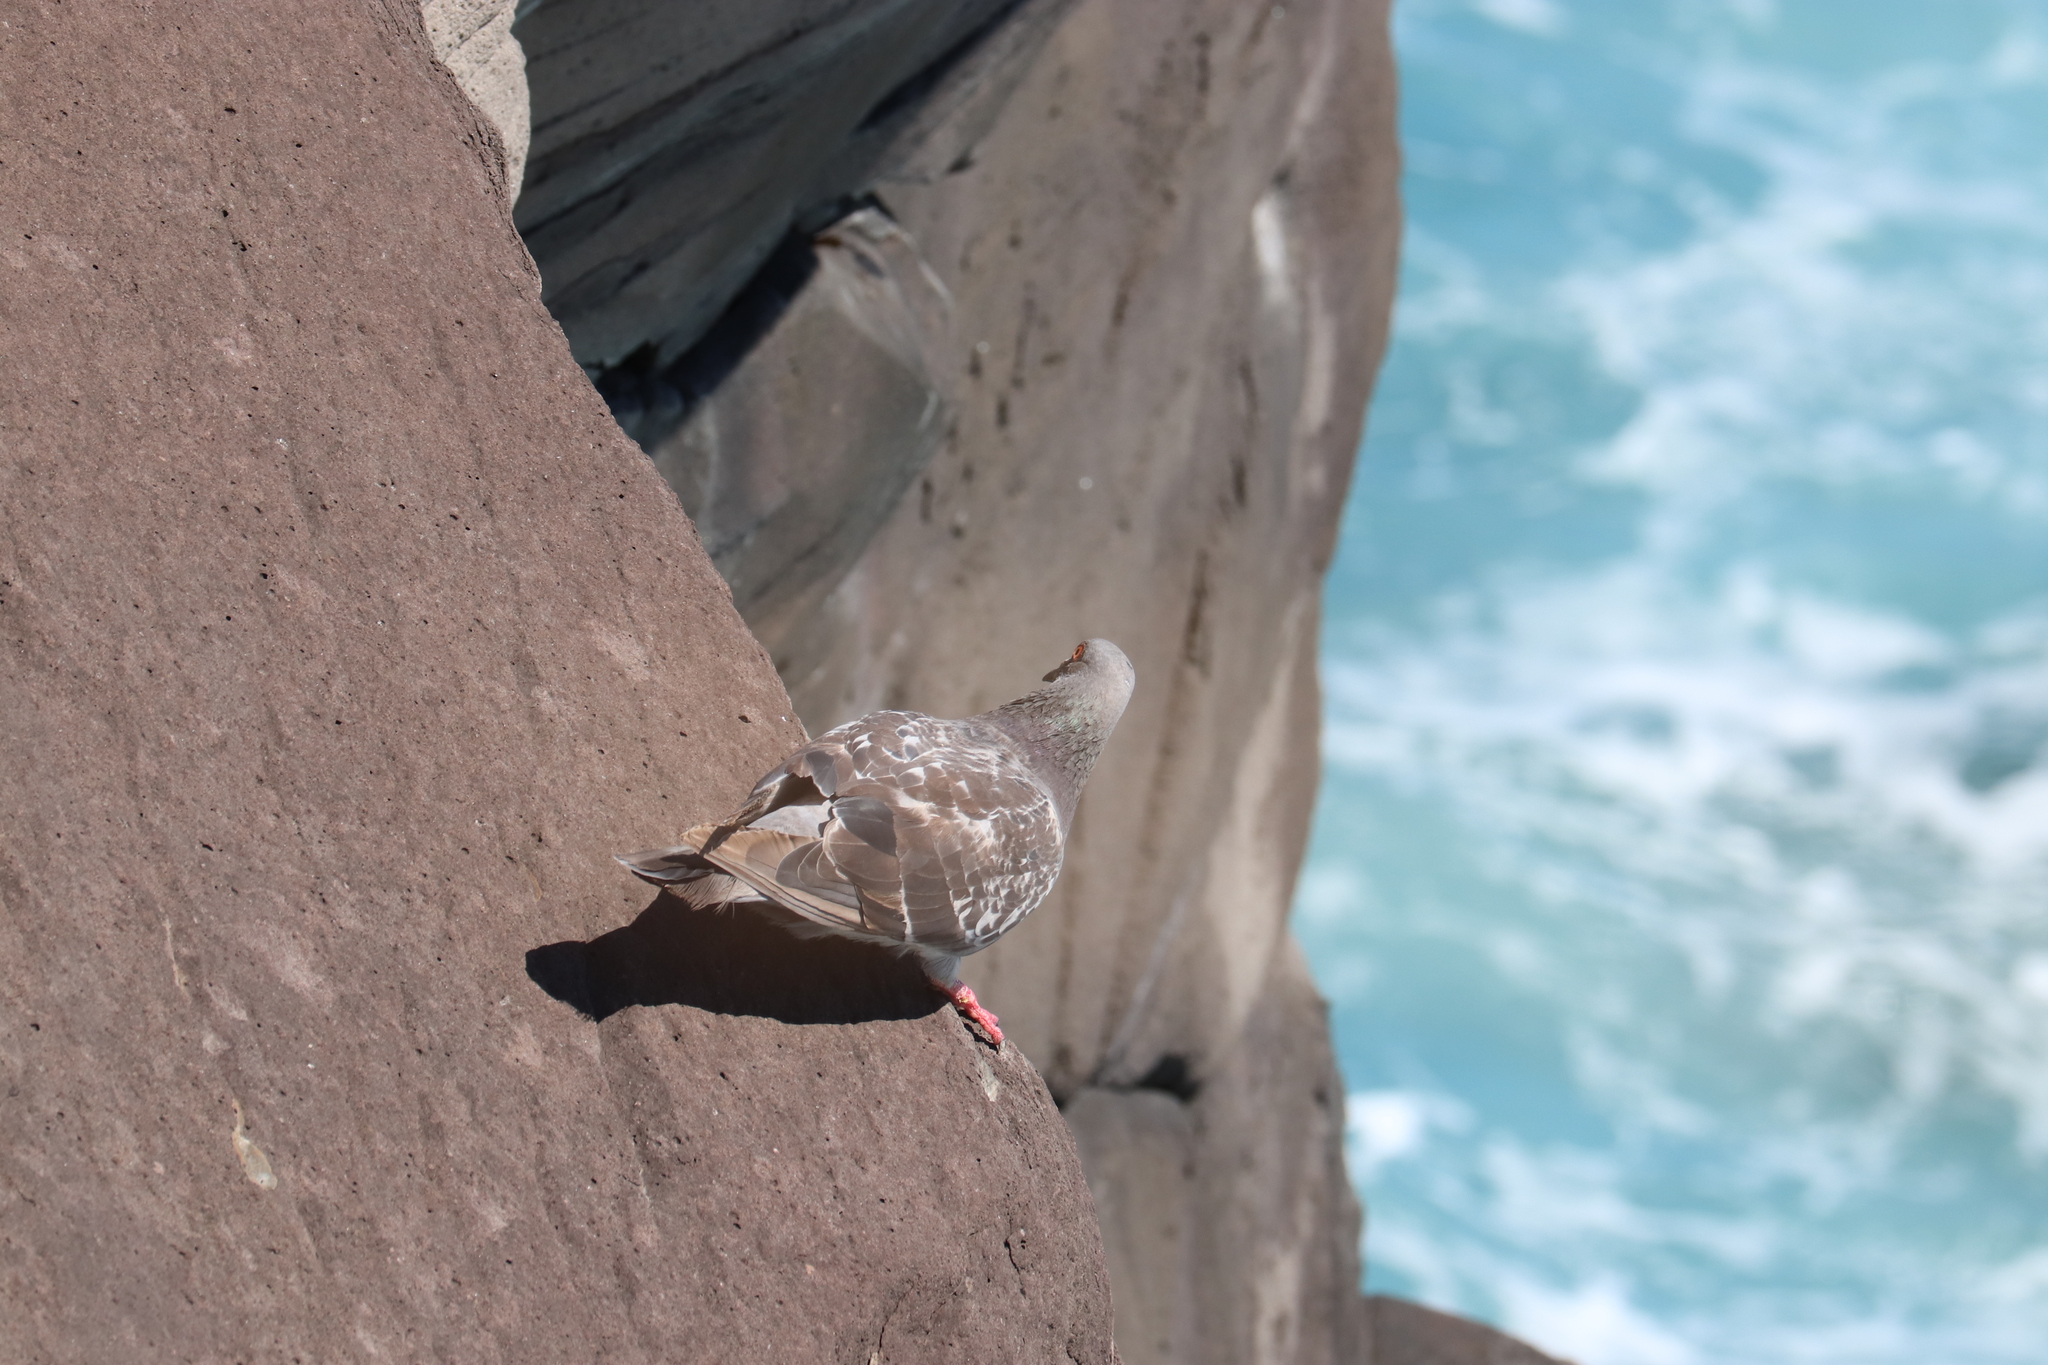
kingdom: Animalia
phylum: Chordata
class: Aves
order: Columbiformes
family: Columbidae
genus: Columba
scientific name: Columba livia
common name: Rock pigeon
